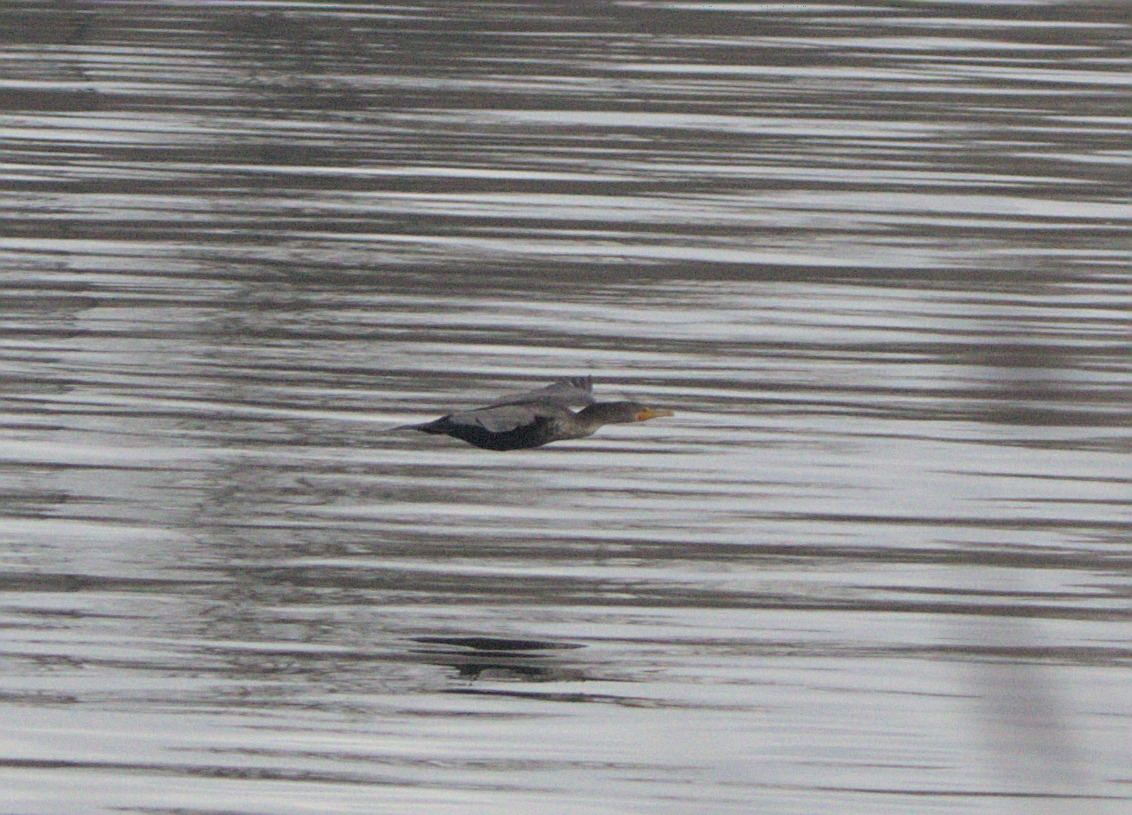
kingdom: Animalia
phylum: Chordata
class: Aves
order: Suliformes
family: Phalacrocoracidae
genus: Phalacrocorax
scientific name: Phalacrocorax auritus
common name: Double-crested cormorant
